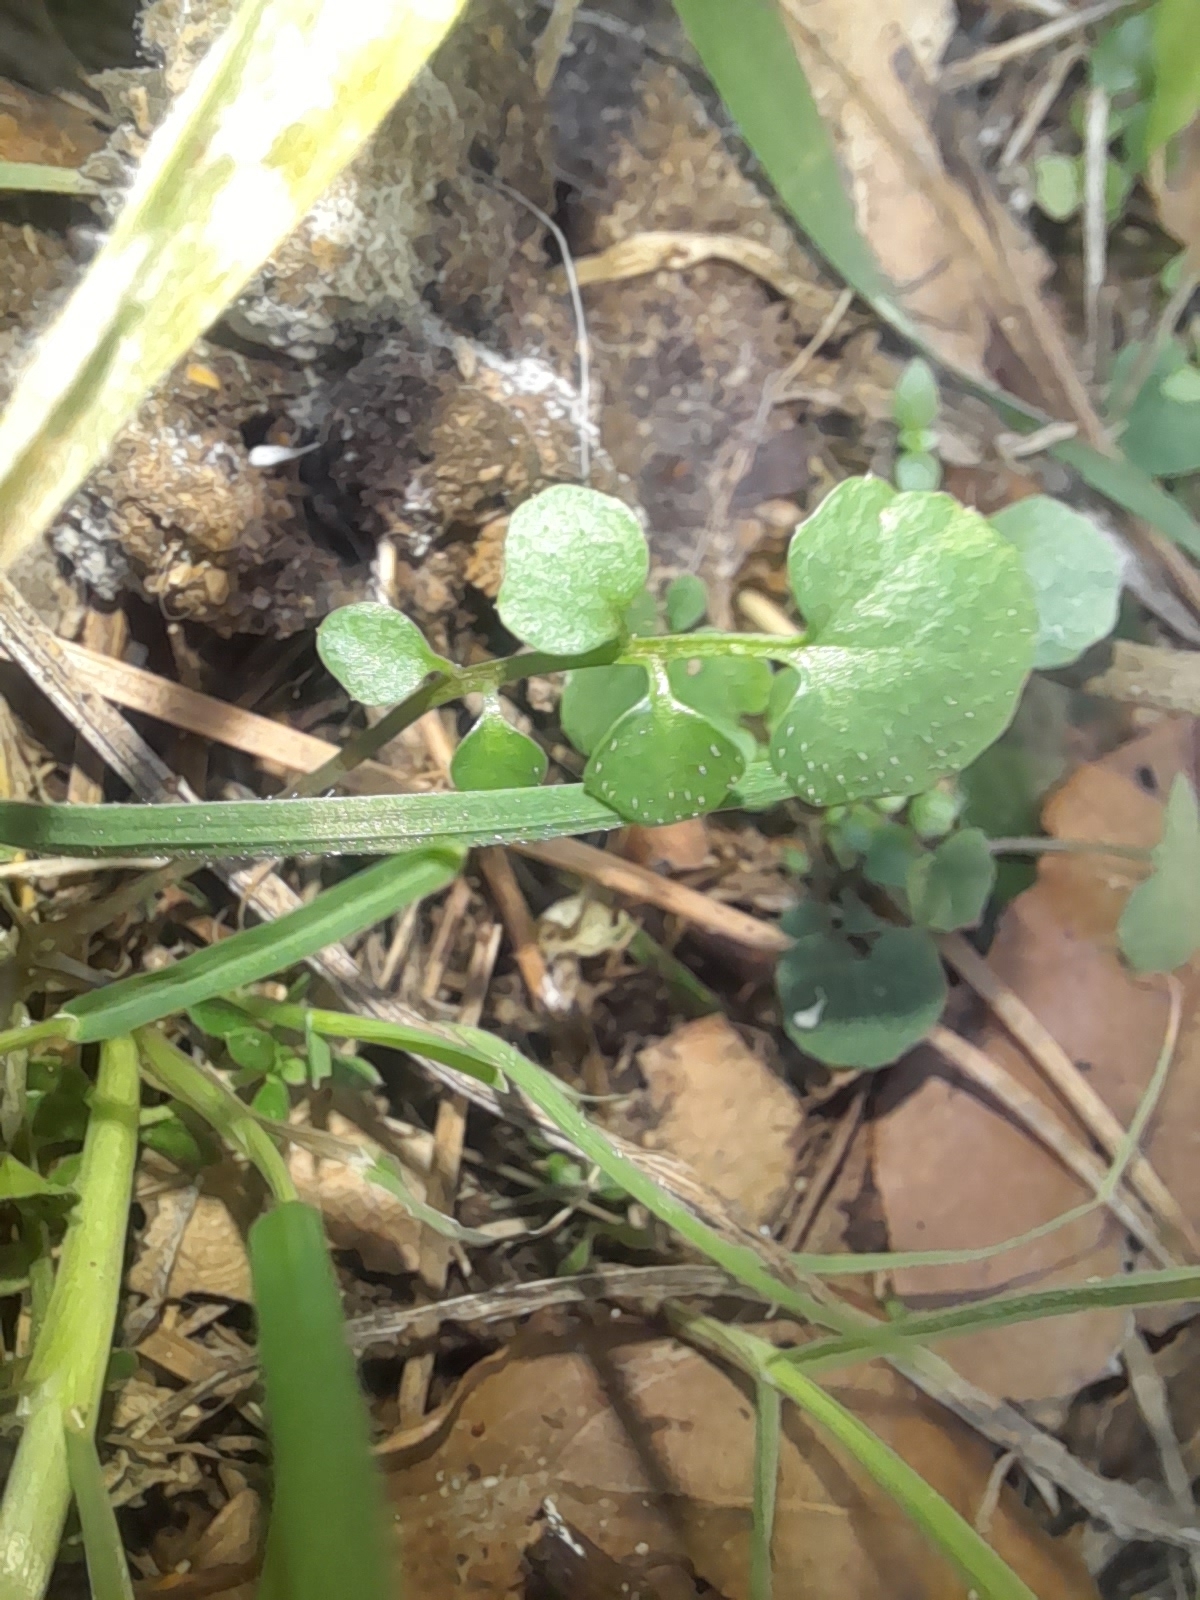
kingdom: Plantae
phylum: Tracheophyta
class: Magnoliopsida
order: Brassicales
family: Brassicaceae
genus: Cardamine
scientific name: Cardamine hirsuta
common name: Hairy bittercress
